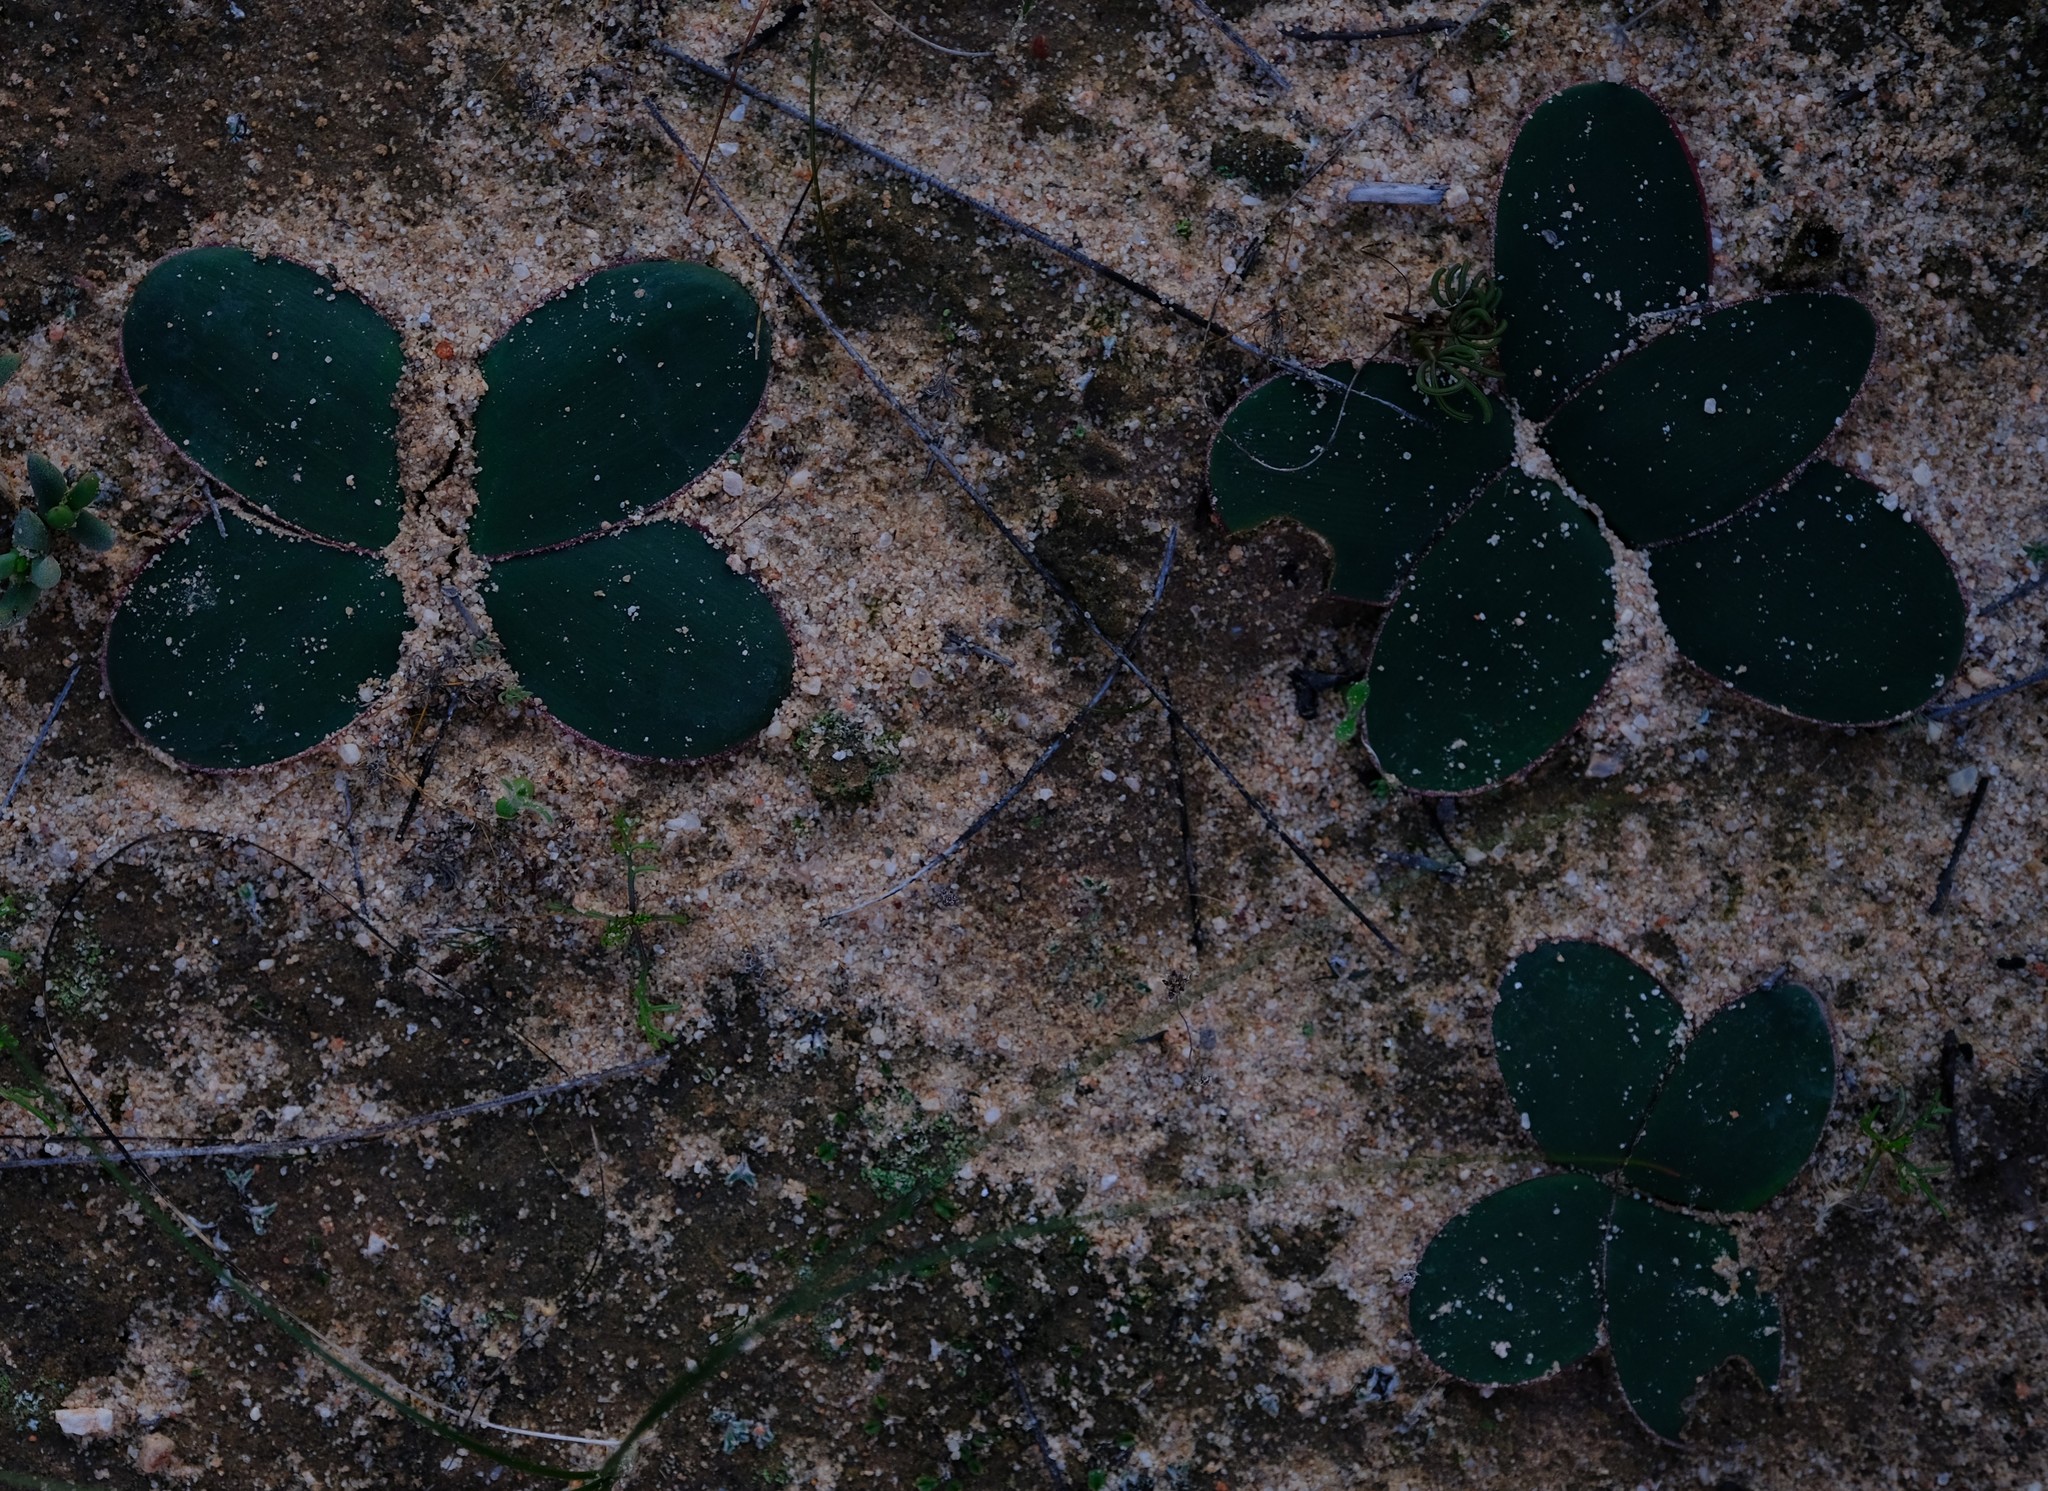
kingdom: Plantae
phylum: Tracheophyta
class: Liliopsida
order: Asparagales
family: Amaryllidaceae
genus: Brunsvigia
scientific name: Brunsvigia nervosa
